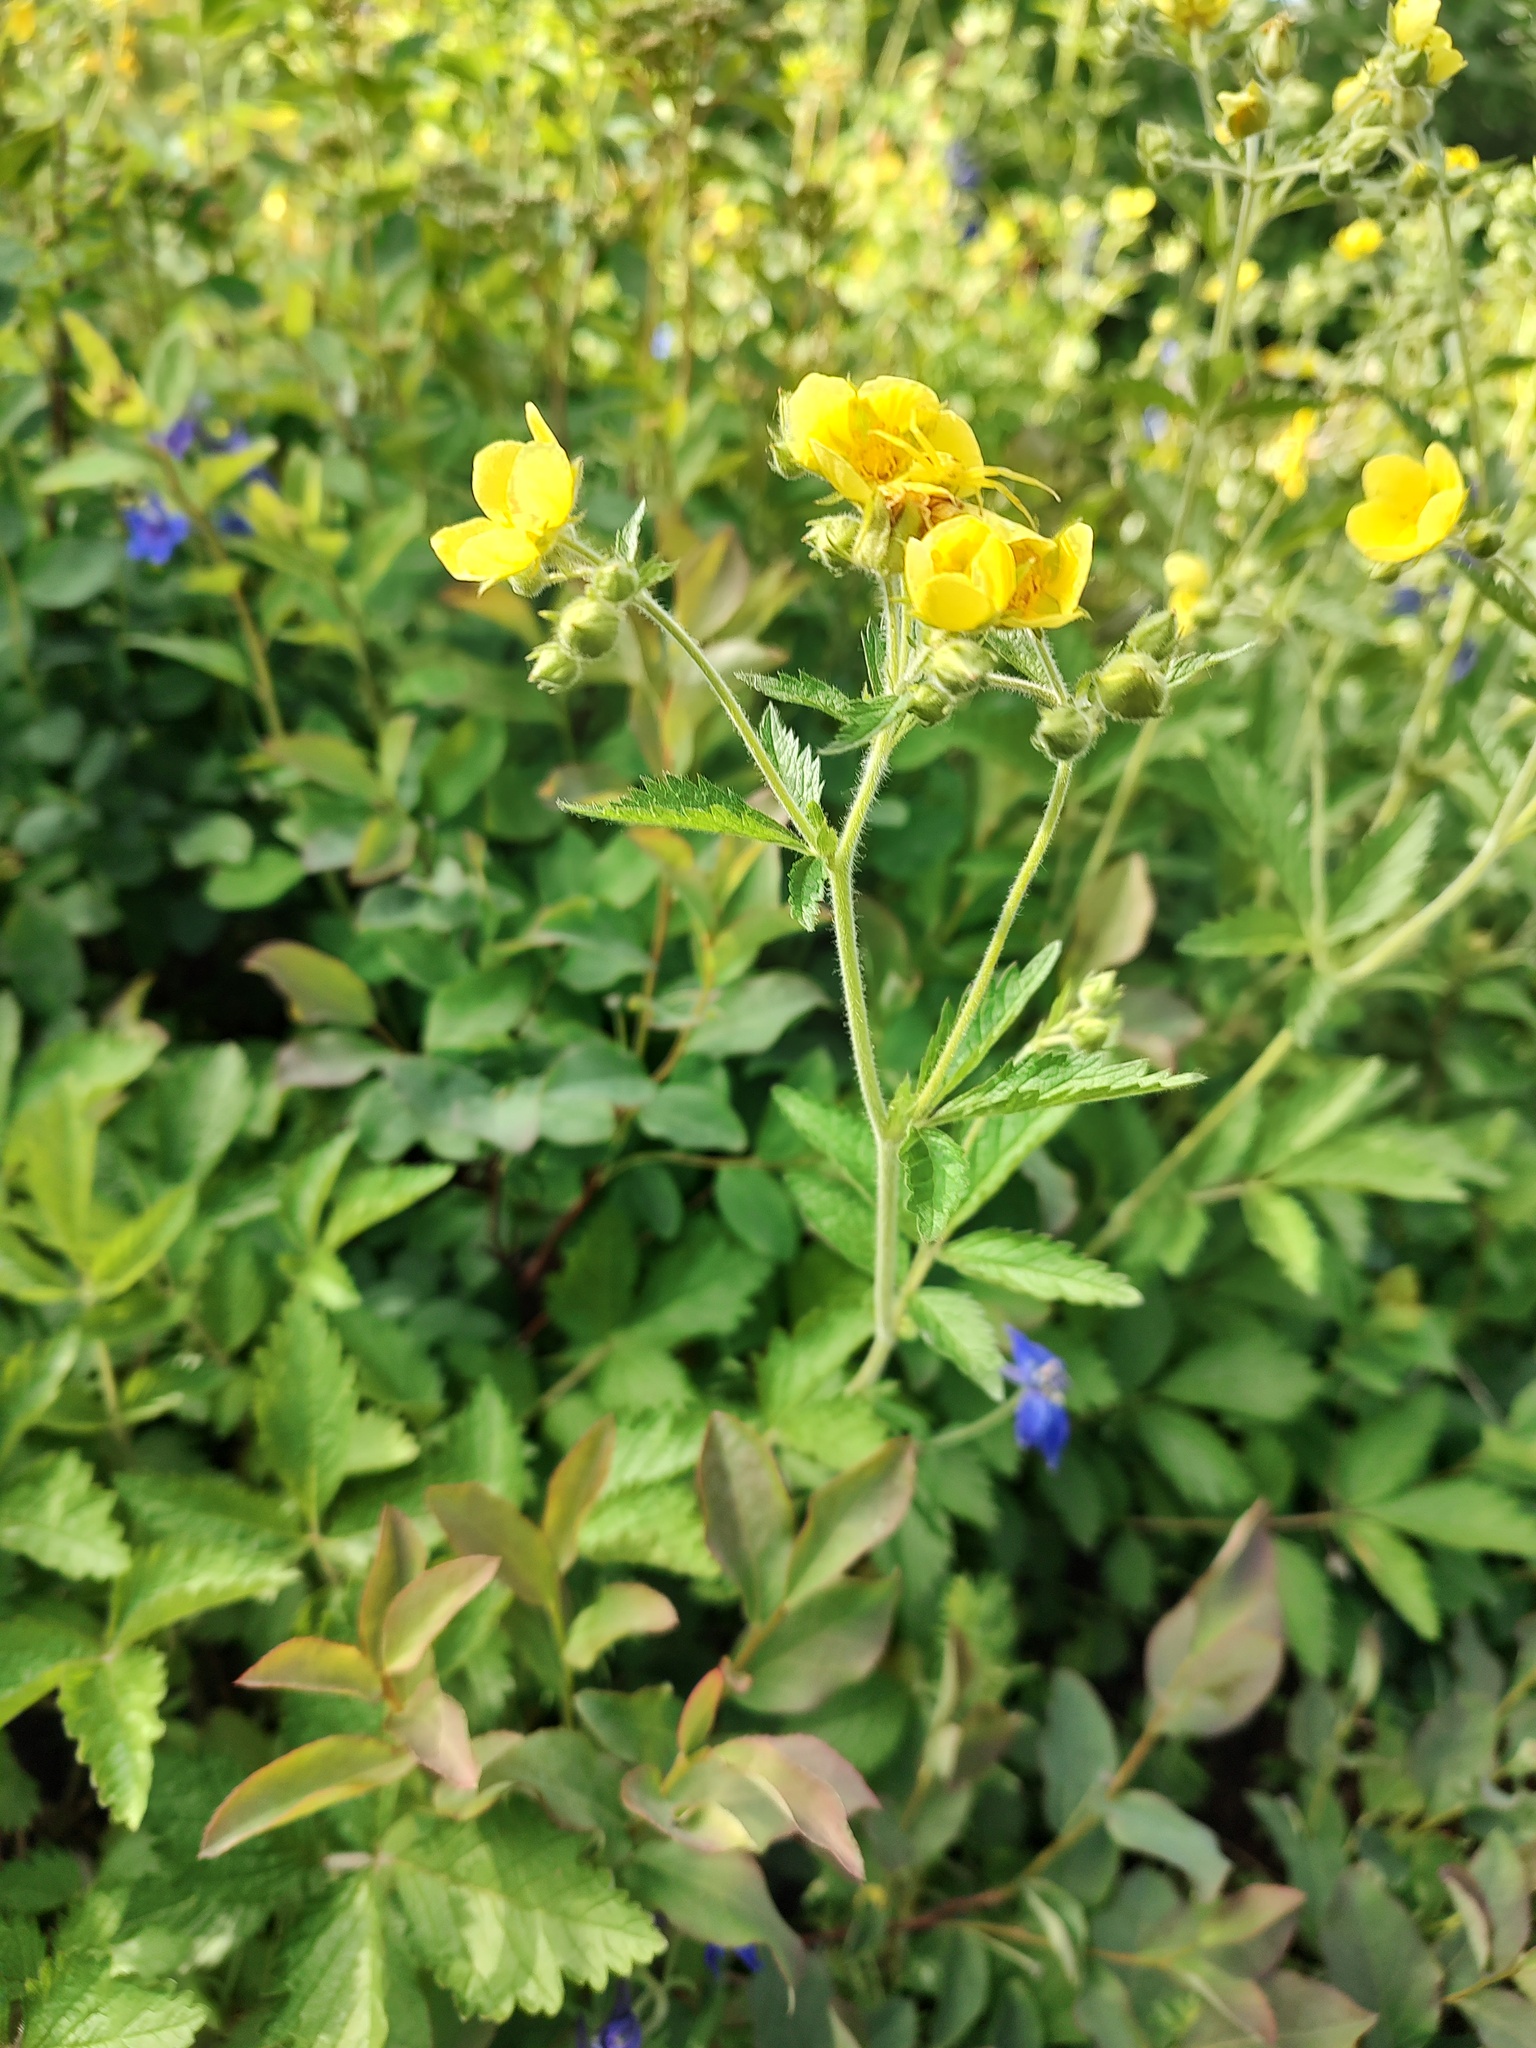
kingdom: Plantae
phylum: Tracheophyta
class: Magnoliopsida
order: Rosales
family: Rosaceae
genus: Drymocallis
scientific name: Drymocallis glandulosa
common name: Sticky cinquefoil
